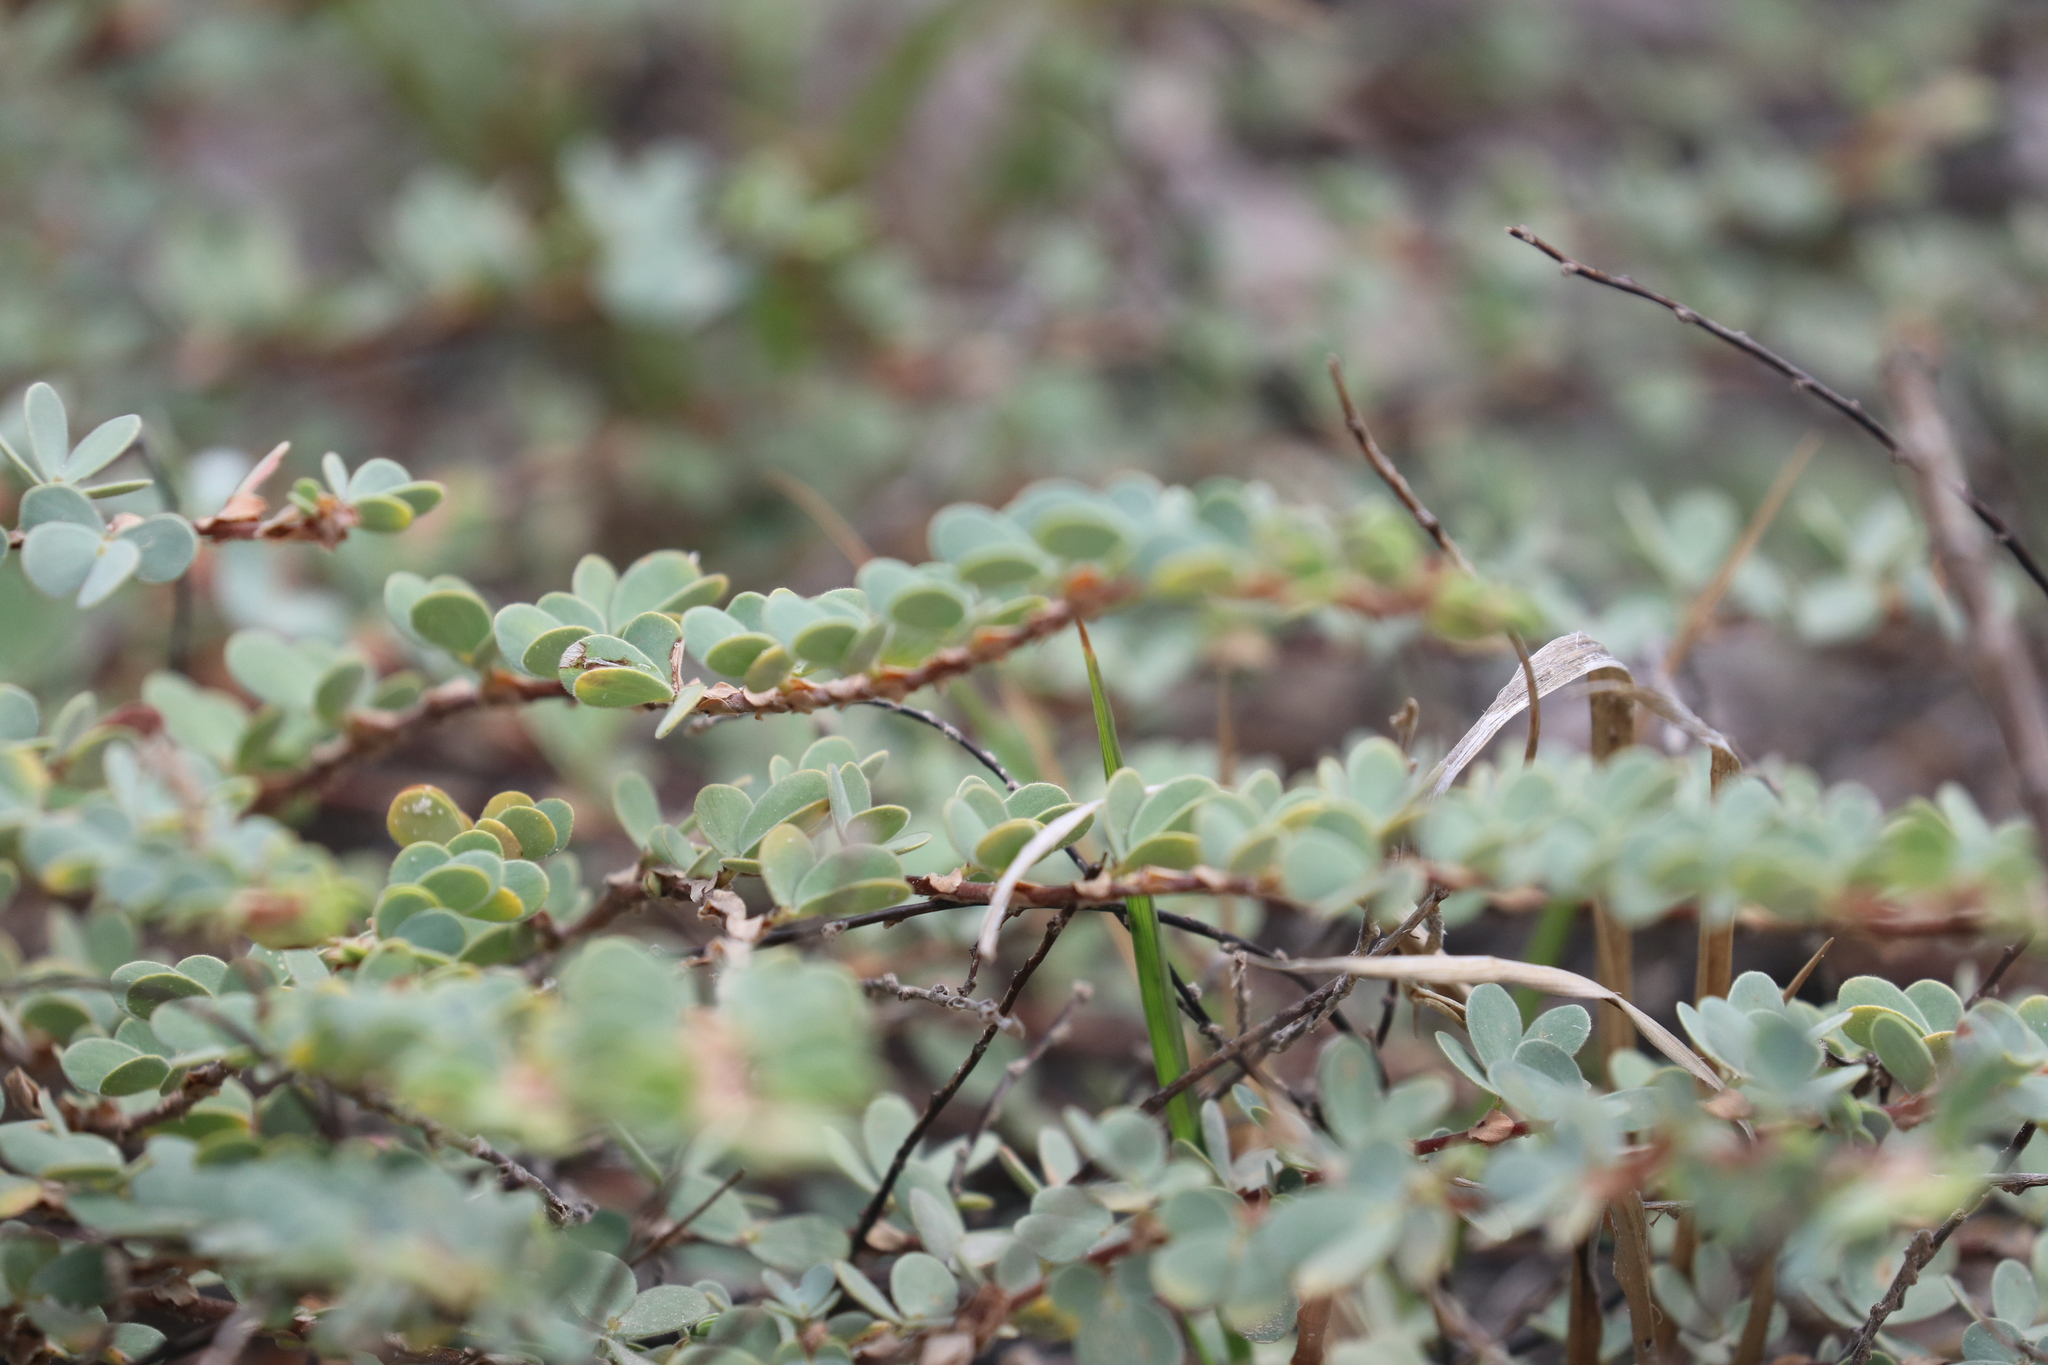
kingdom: Plantae
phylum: Tracheophyta
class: Magnoliopsida
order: Fabales
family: Fabaceae
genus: Chamaecrista
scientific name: Chamaecrista ramosa
